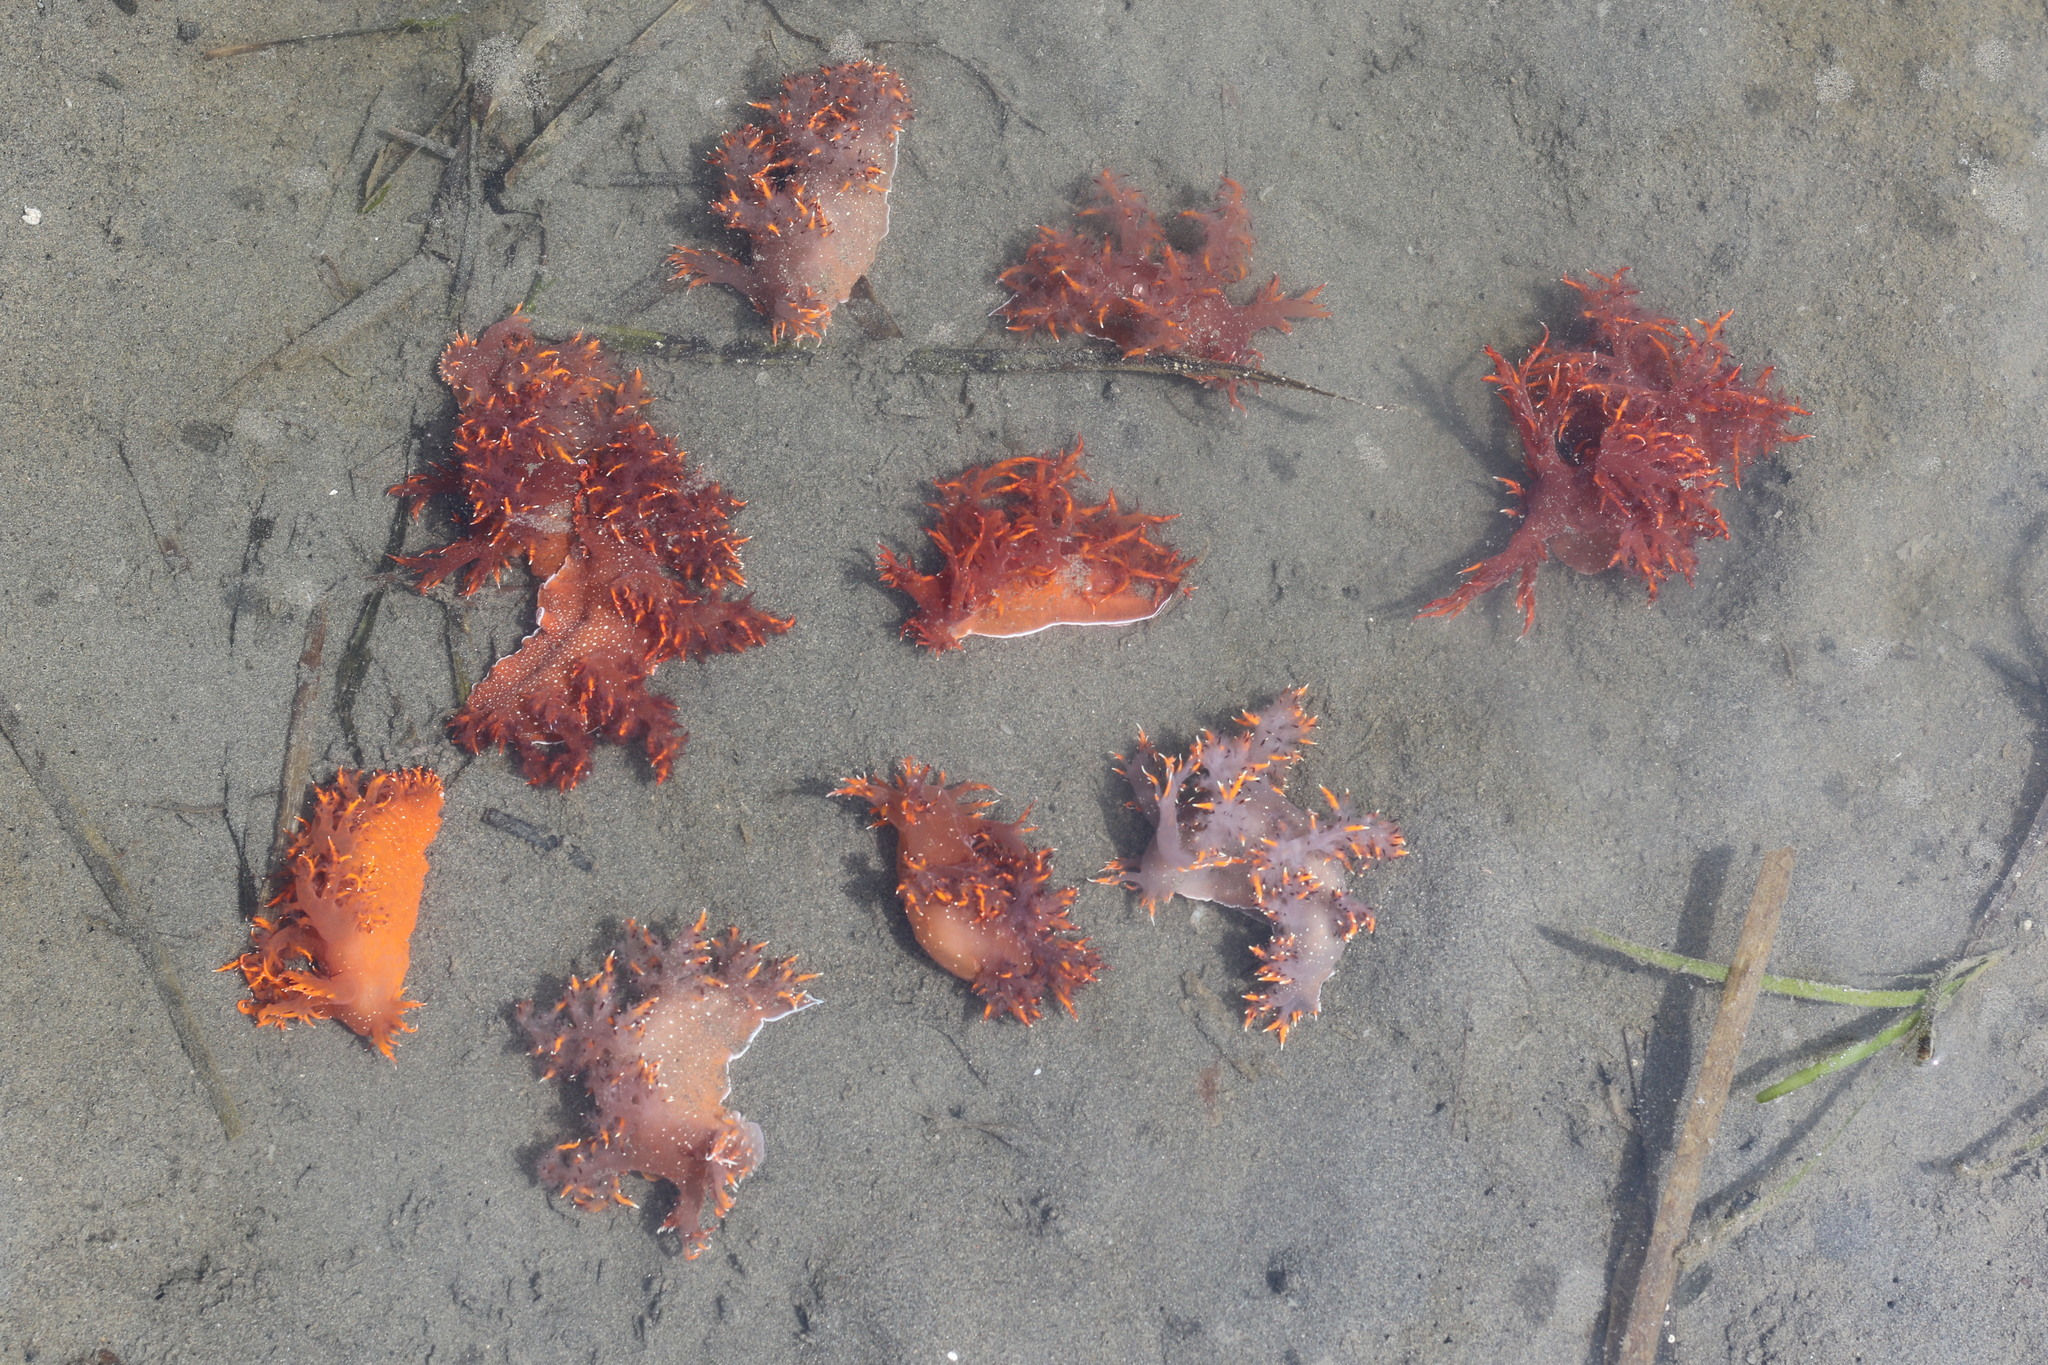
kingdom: Animalia
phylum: Mollusca
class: Gastropoda
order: Nudibranchia
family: Dendronotidae
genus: Dendronotus
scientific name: Dendronotus iris
